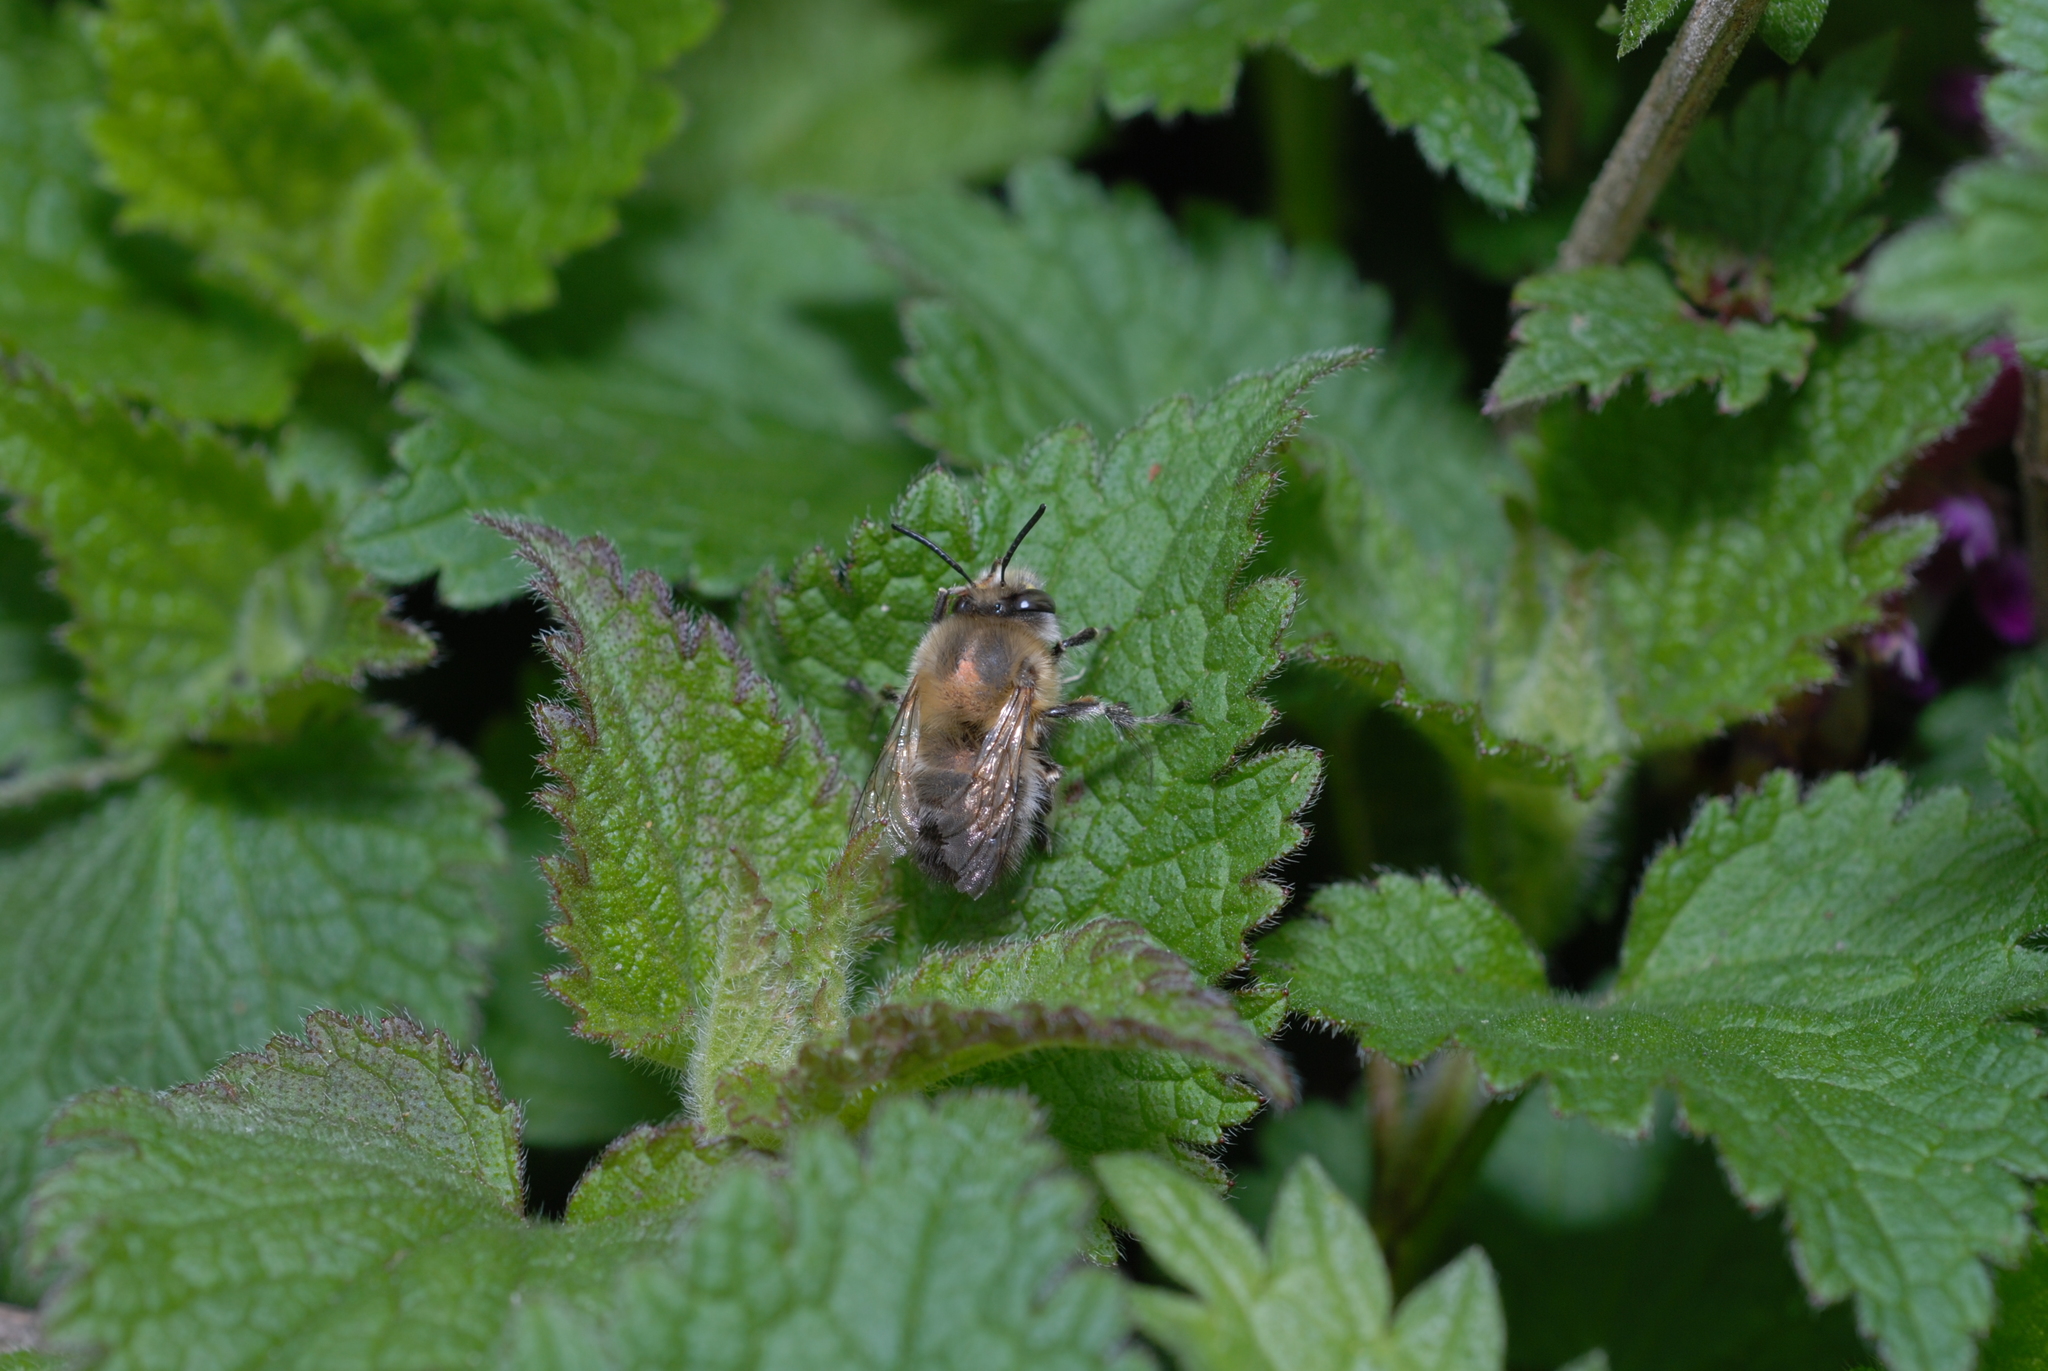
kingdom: Animalia
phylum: Arthropoda
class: Insecta
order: Hymenoptera
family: Apidae
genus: Anthophora
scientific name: Anthophora plumipes
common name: Hairy-footed flower bee
